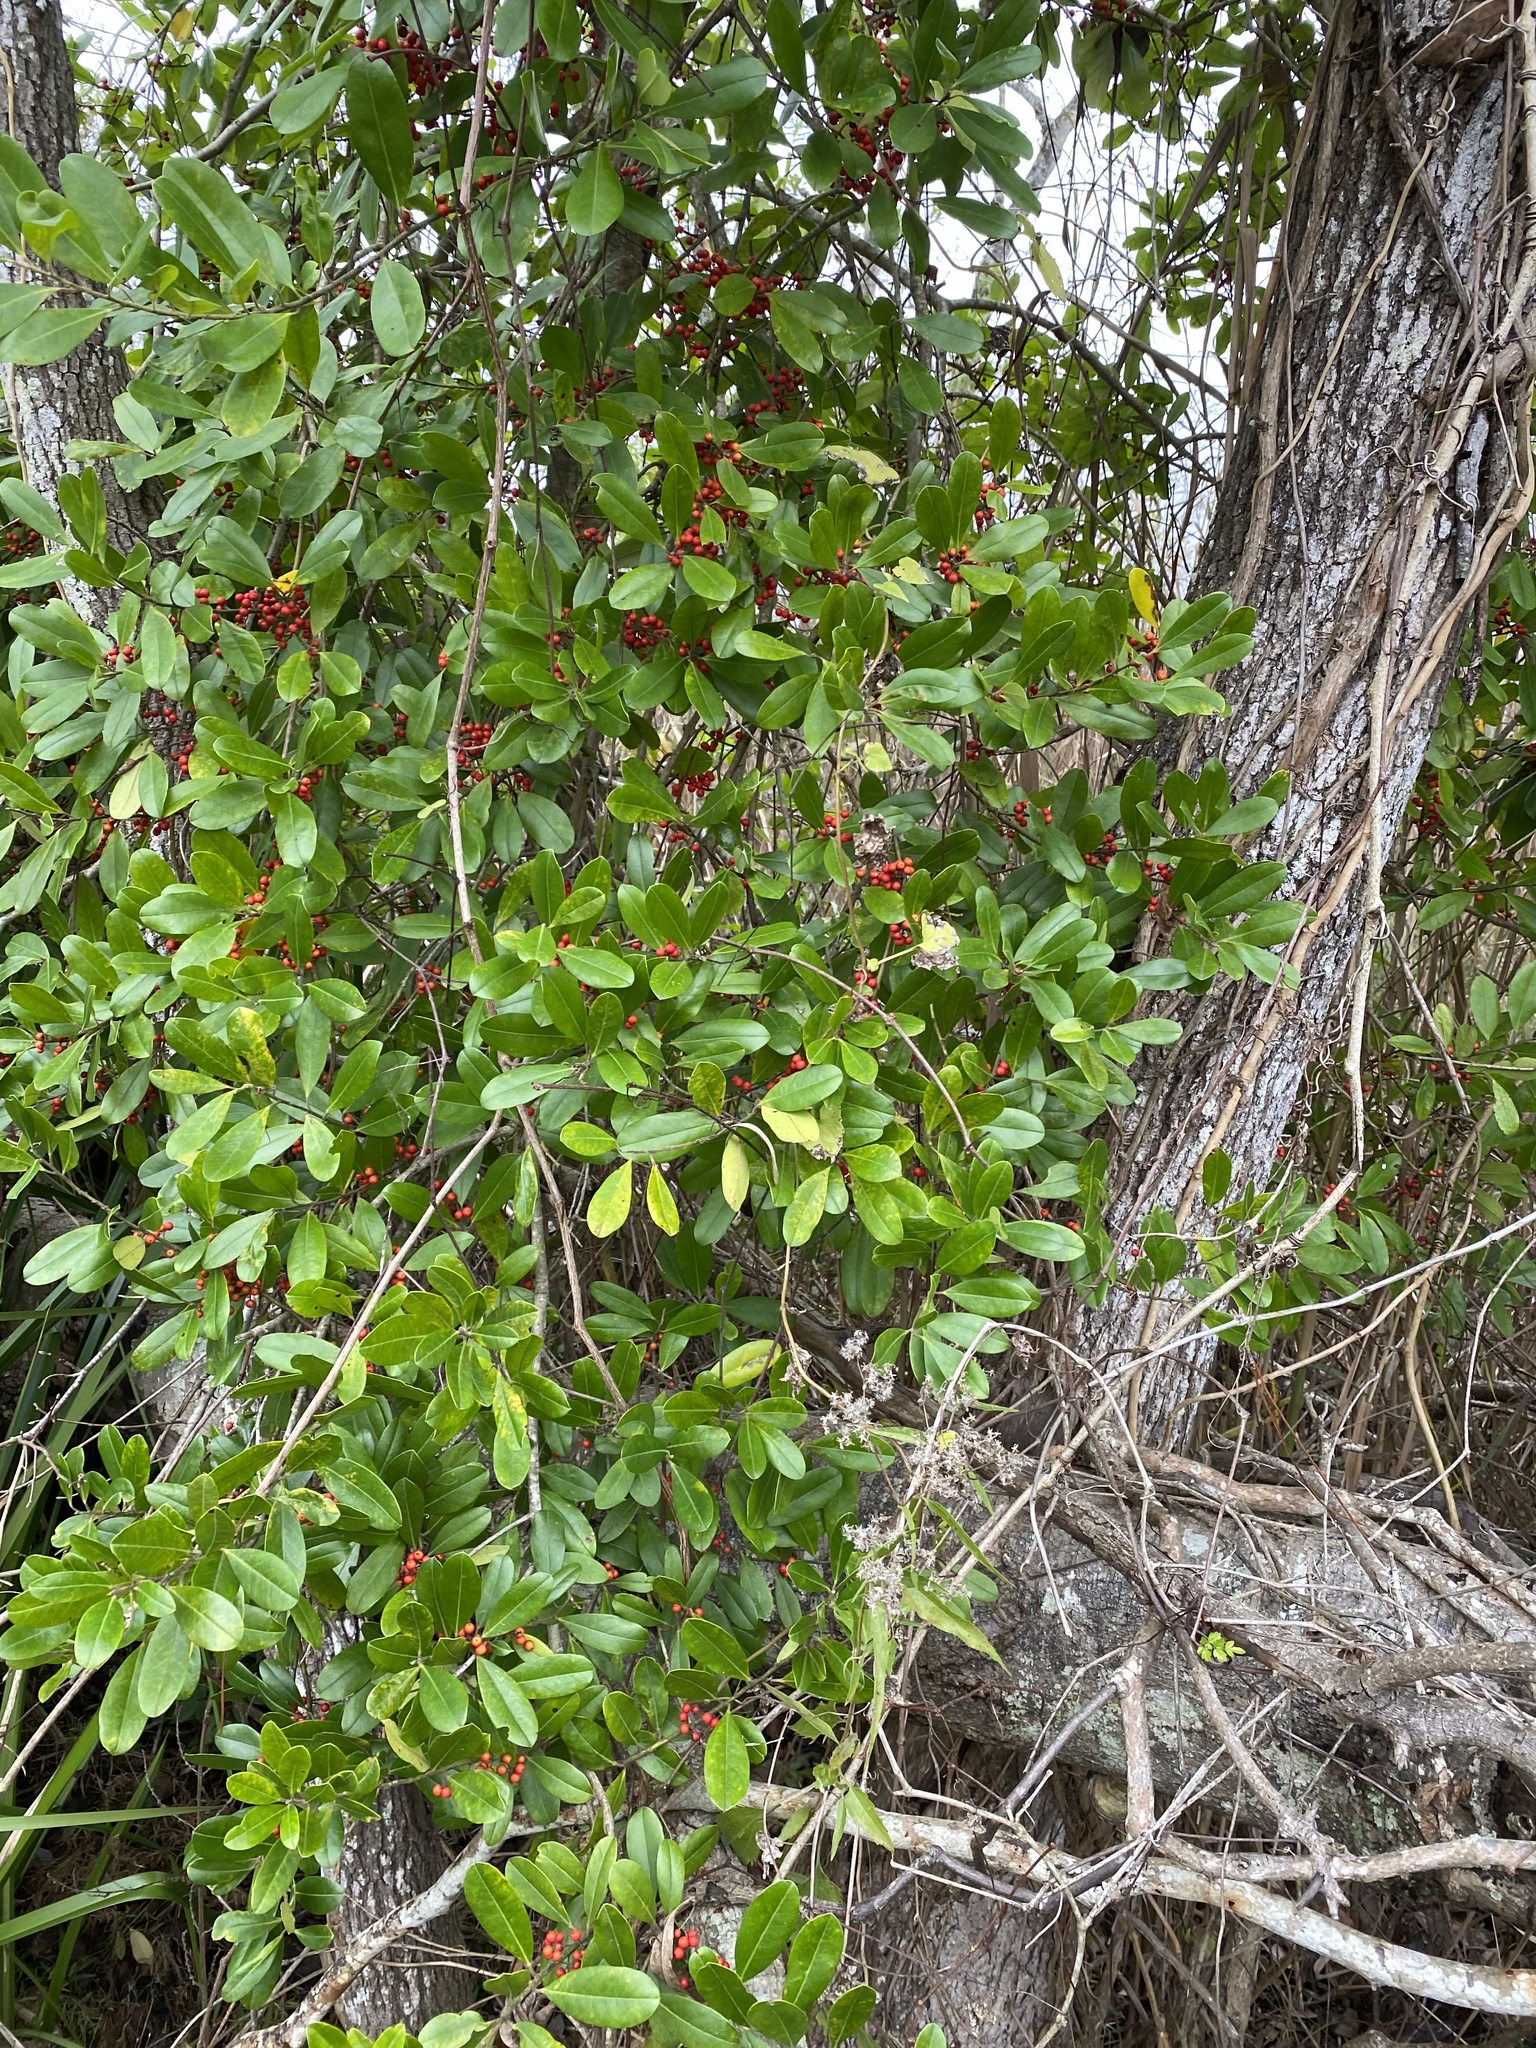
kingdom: Plantae
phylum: Tracheophyta
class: Magnoliopsida
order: Aquifoliales
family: Aquifoliaceae
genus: Ilex
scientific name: Ilex cassine
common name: Dahoon
